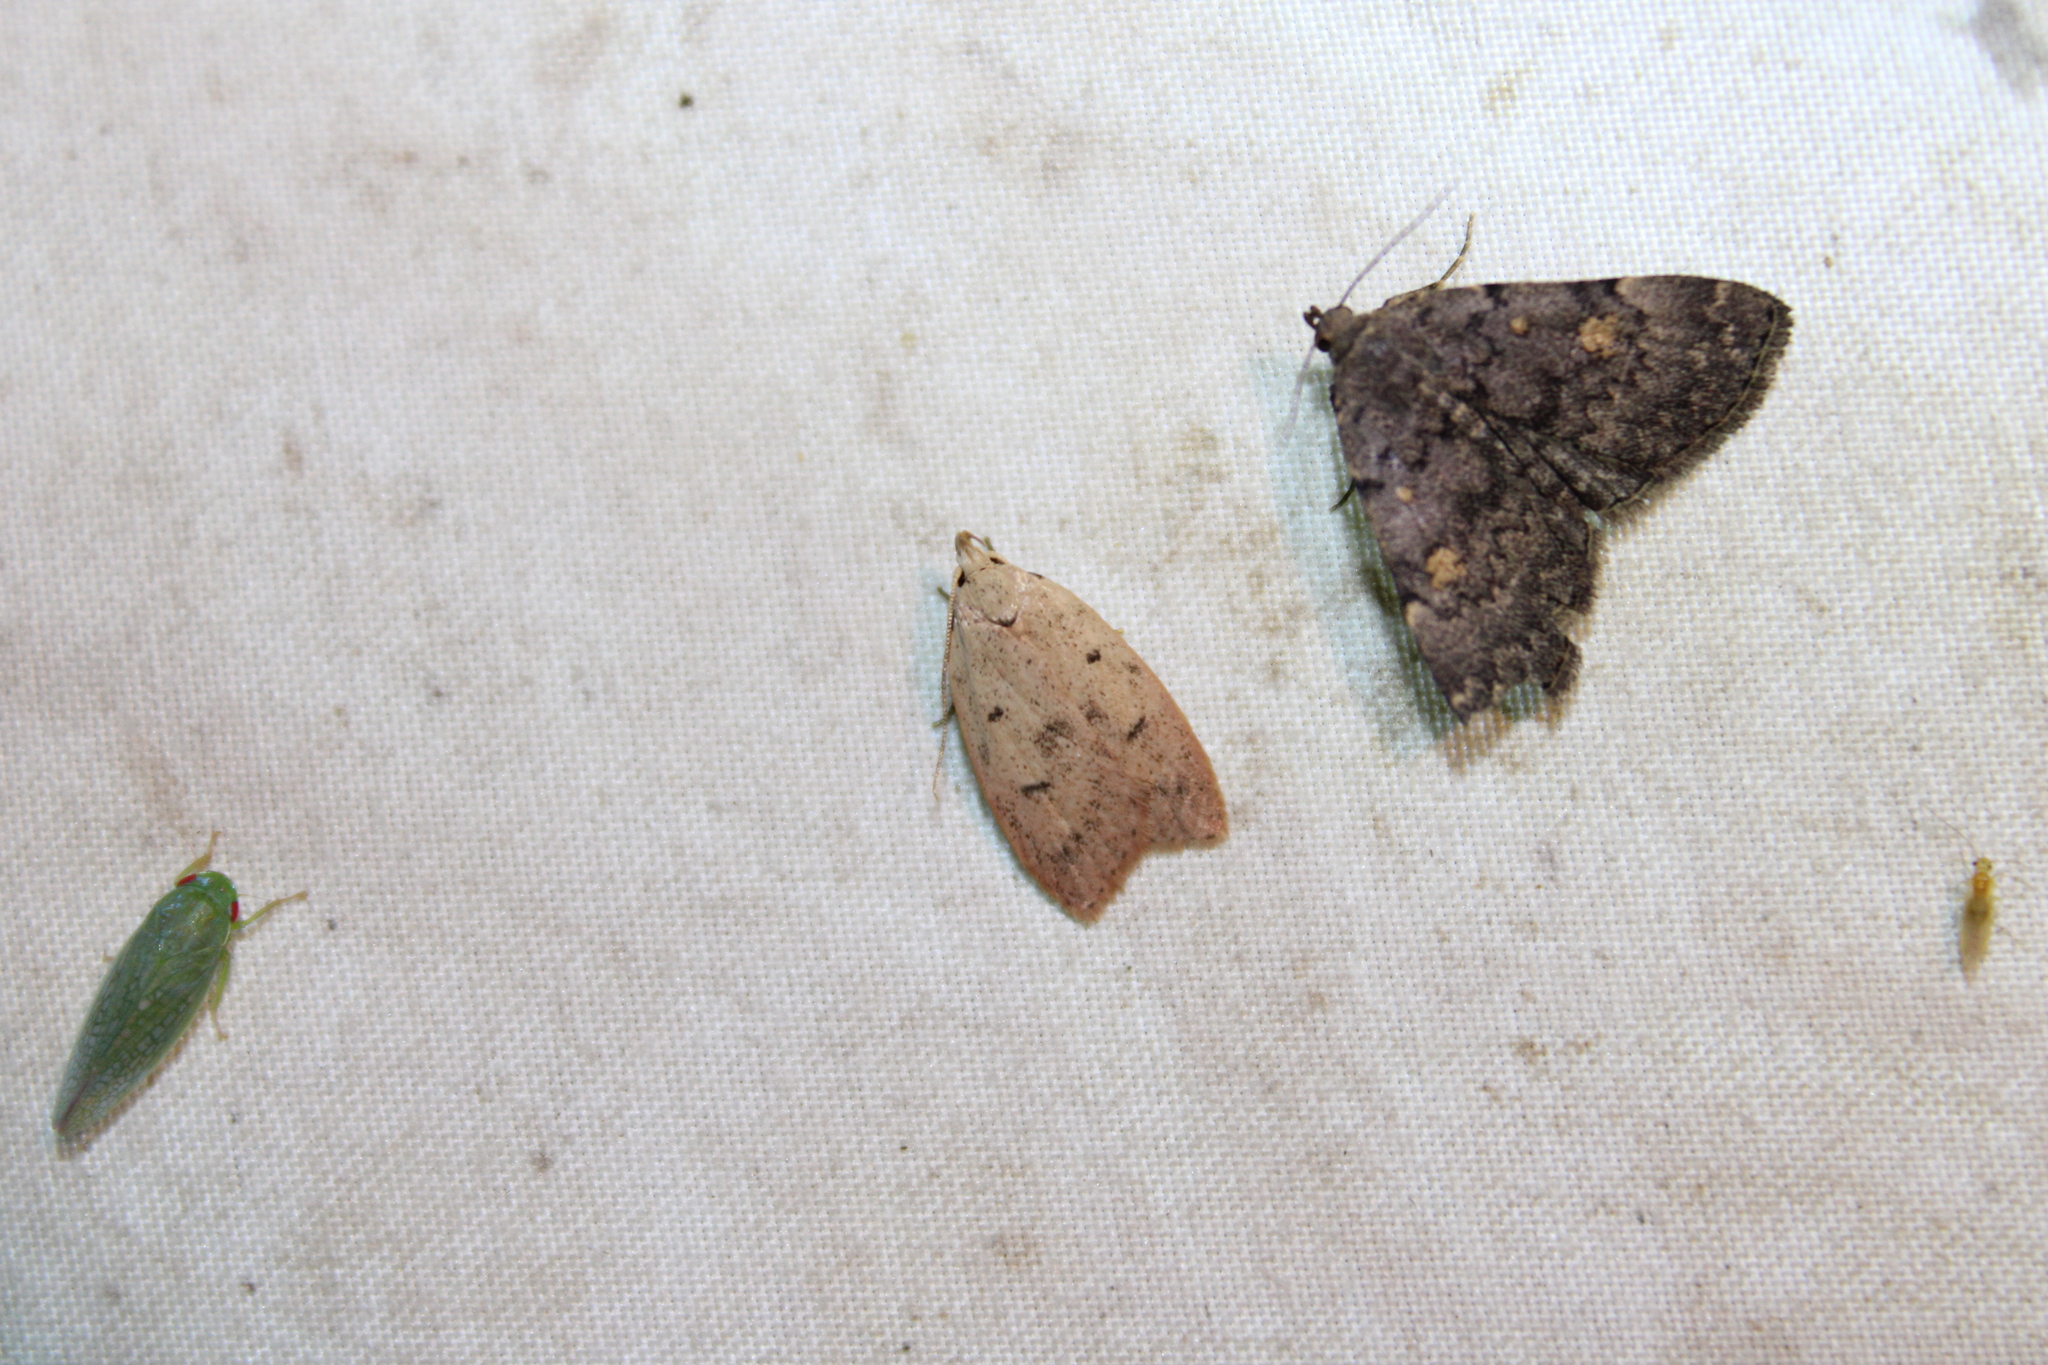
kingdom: Animalia
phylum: Arthropoda
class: Insecta
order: Lepidoptera
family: Peleopodidae
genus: Machimia
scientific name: Machimia tentoriferella
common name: Gold-striped leaftier moth
